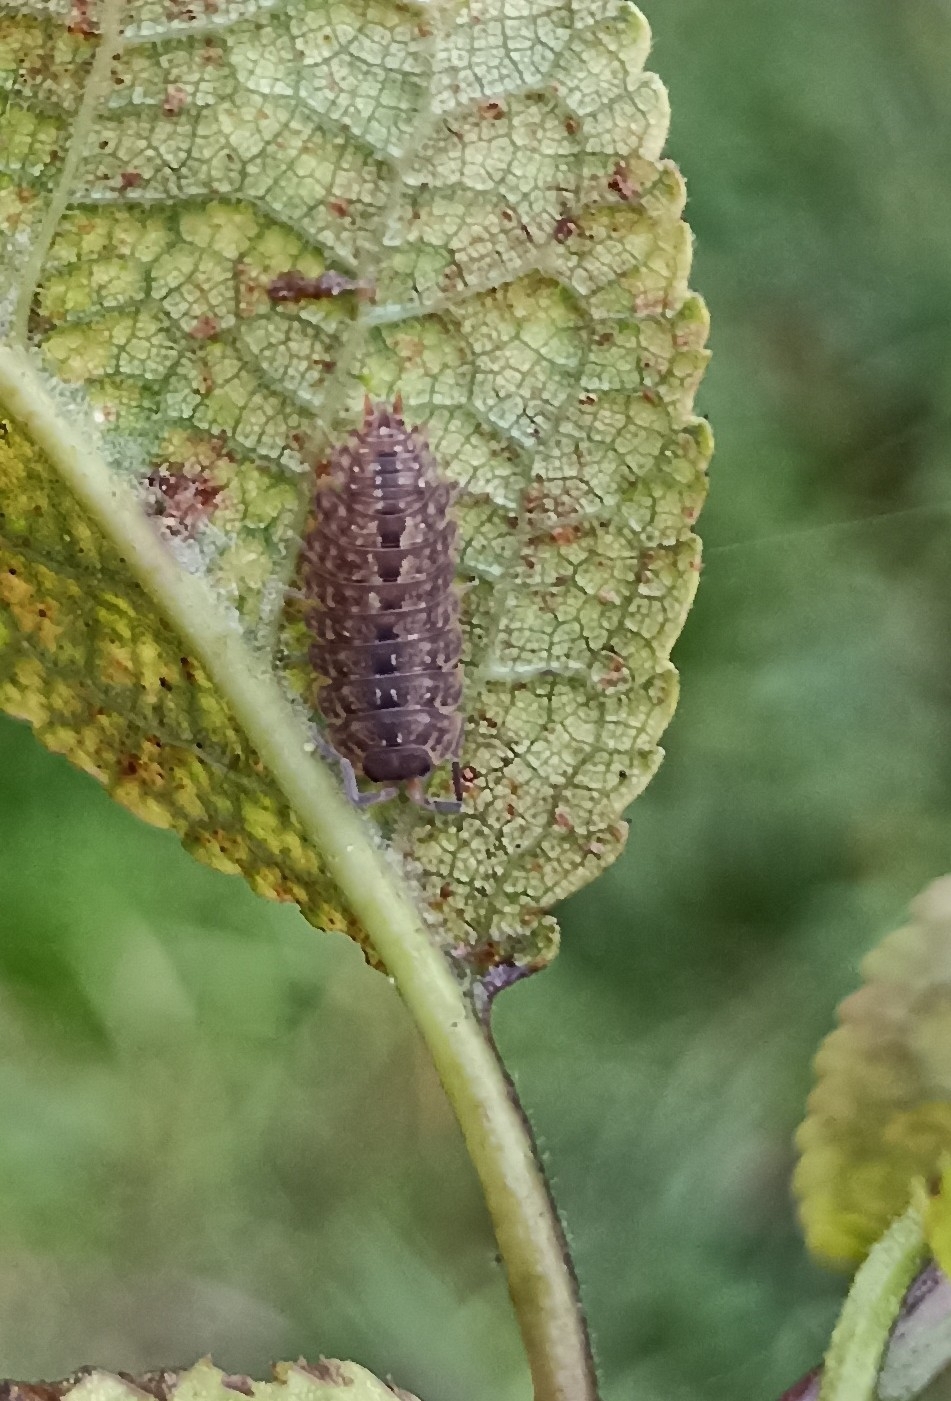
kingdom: Animalia
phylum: Arthropoda
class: Malacostraca
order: Isopoda
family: Porcellionidae
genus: Porcellio
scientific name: Porcellio monticola
